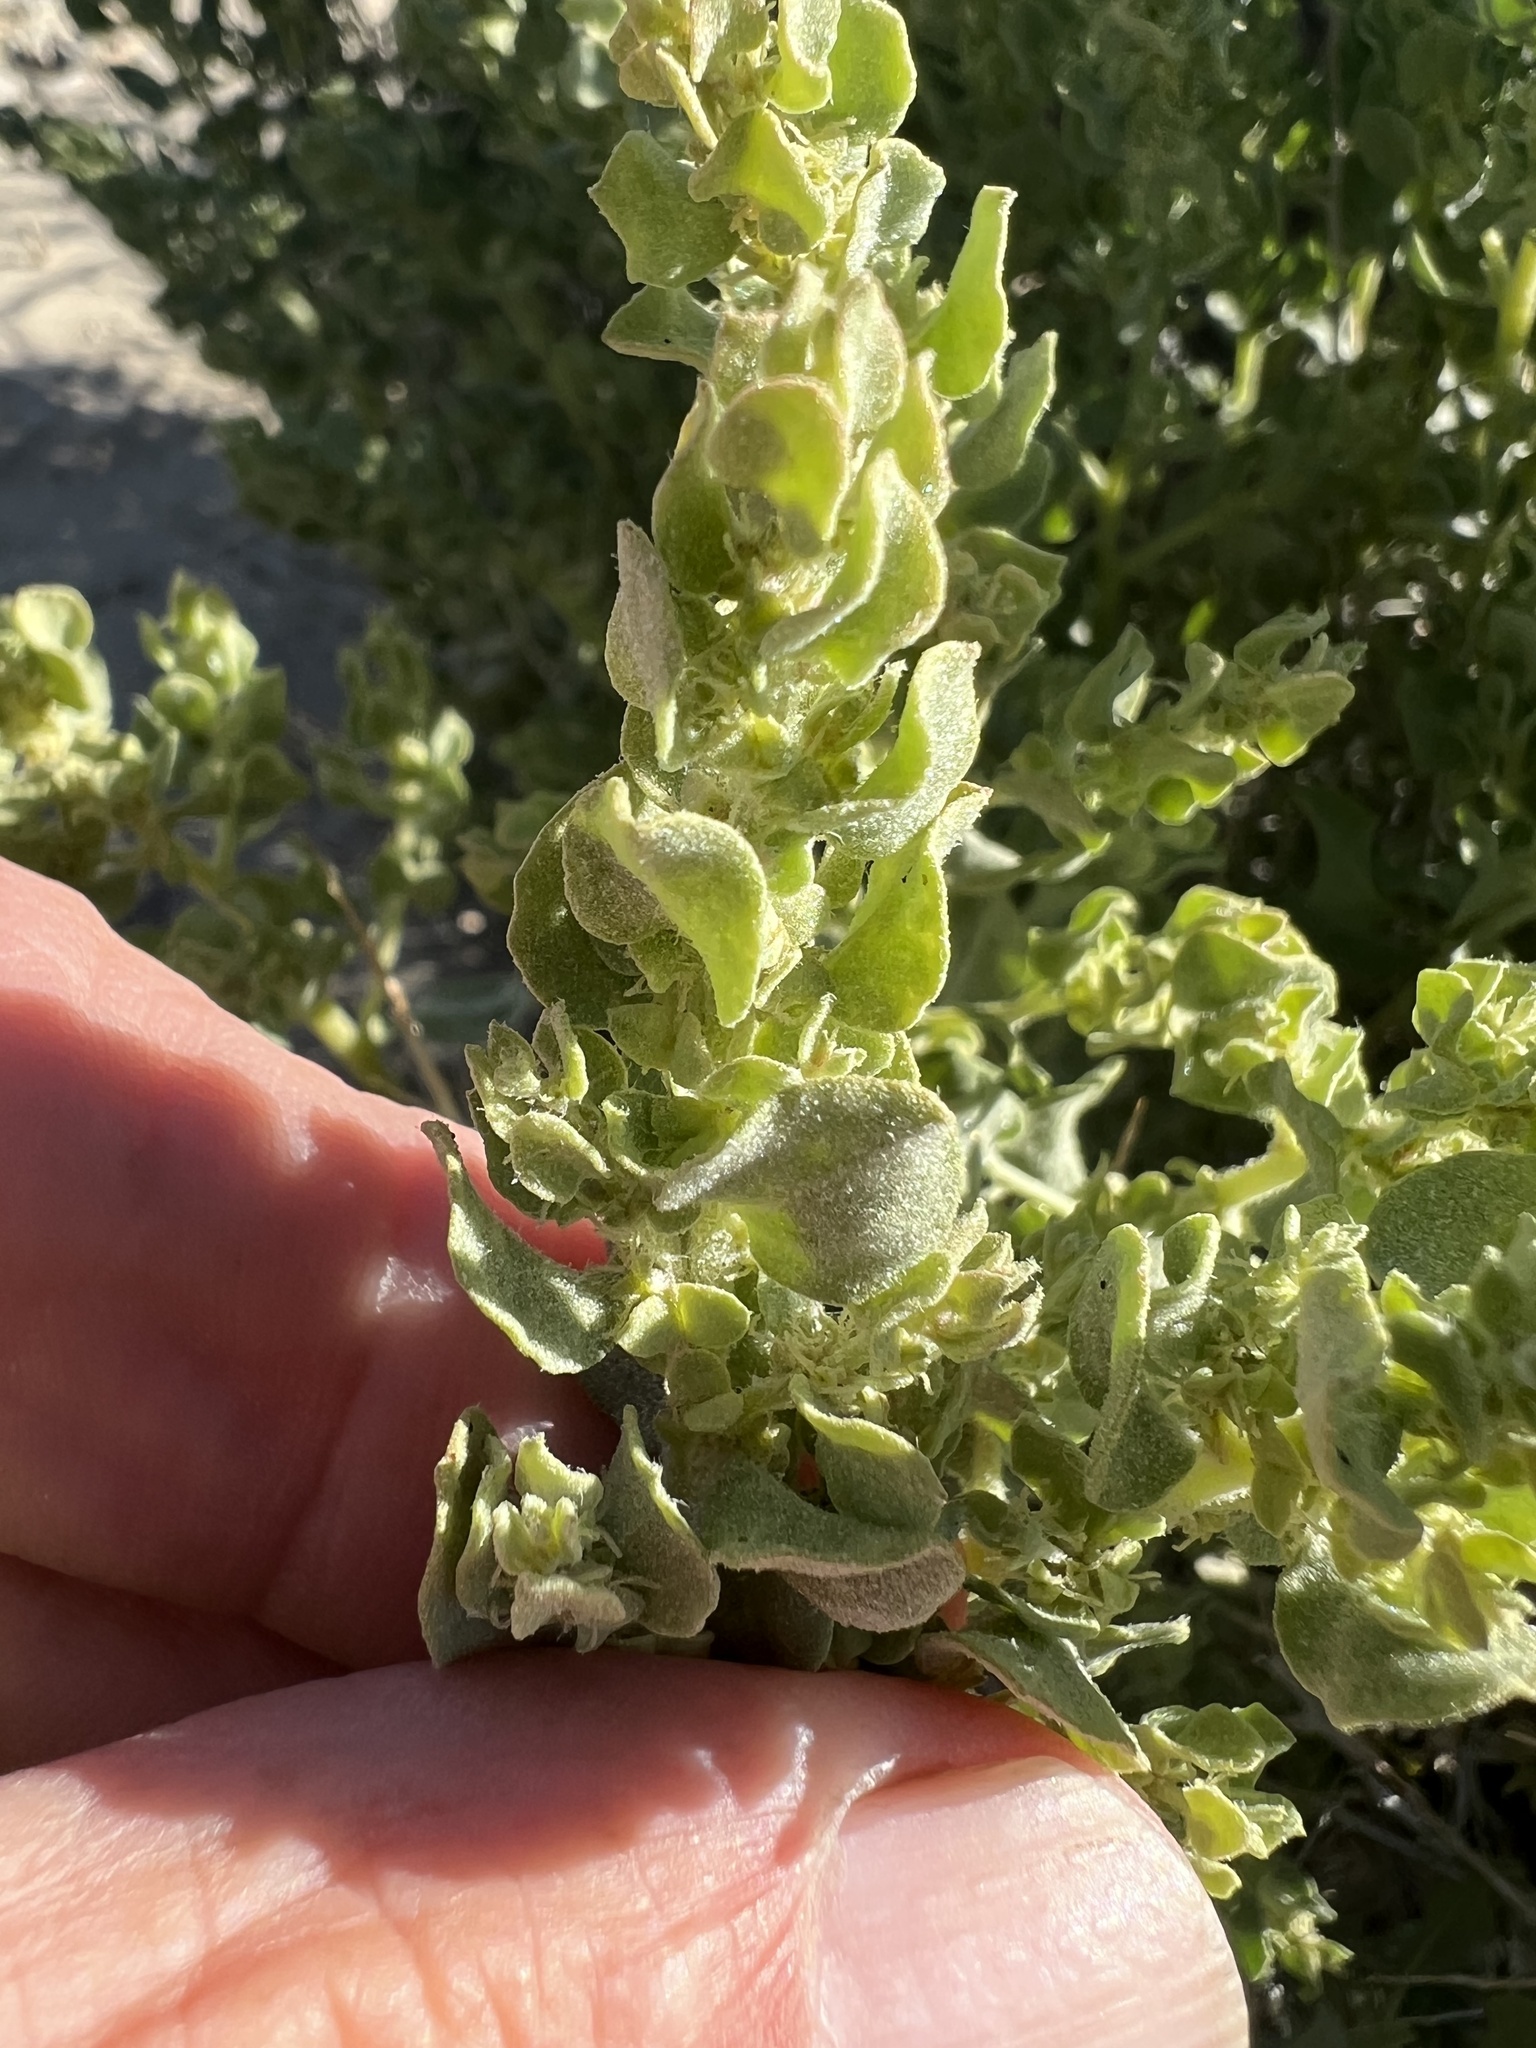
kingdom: Plantae
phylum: Tracheophyta
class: Magnoliopsida
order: Caryophyllales
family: Amaranthaceae
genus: Atriplex
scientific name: Atriplex confertifolia
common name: Shadscale
